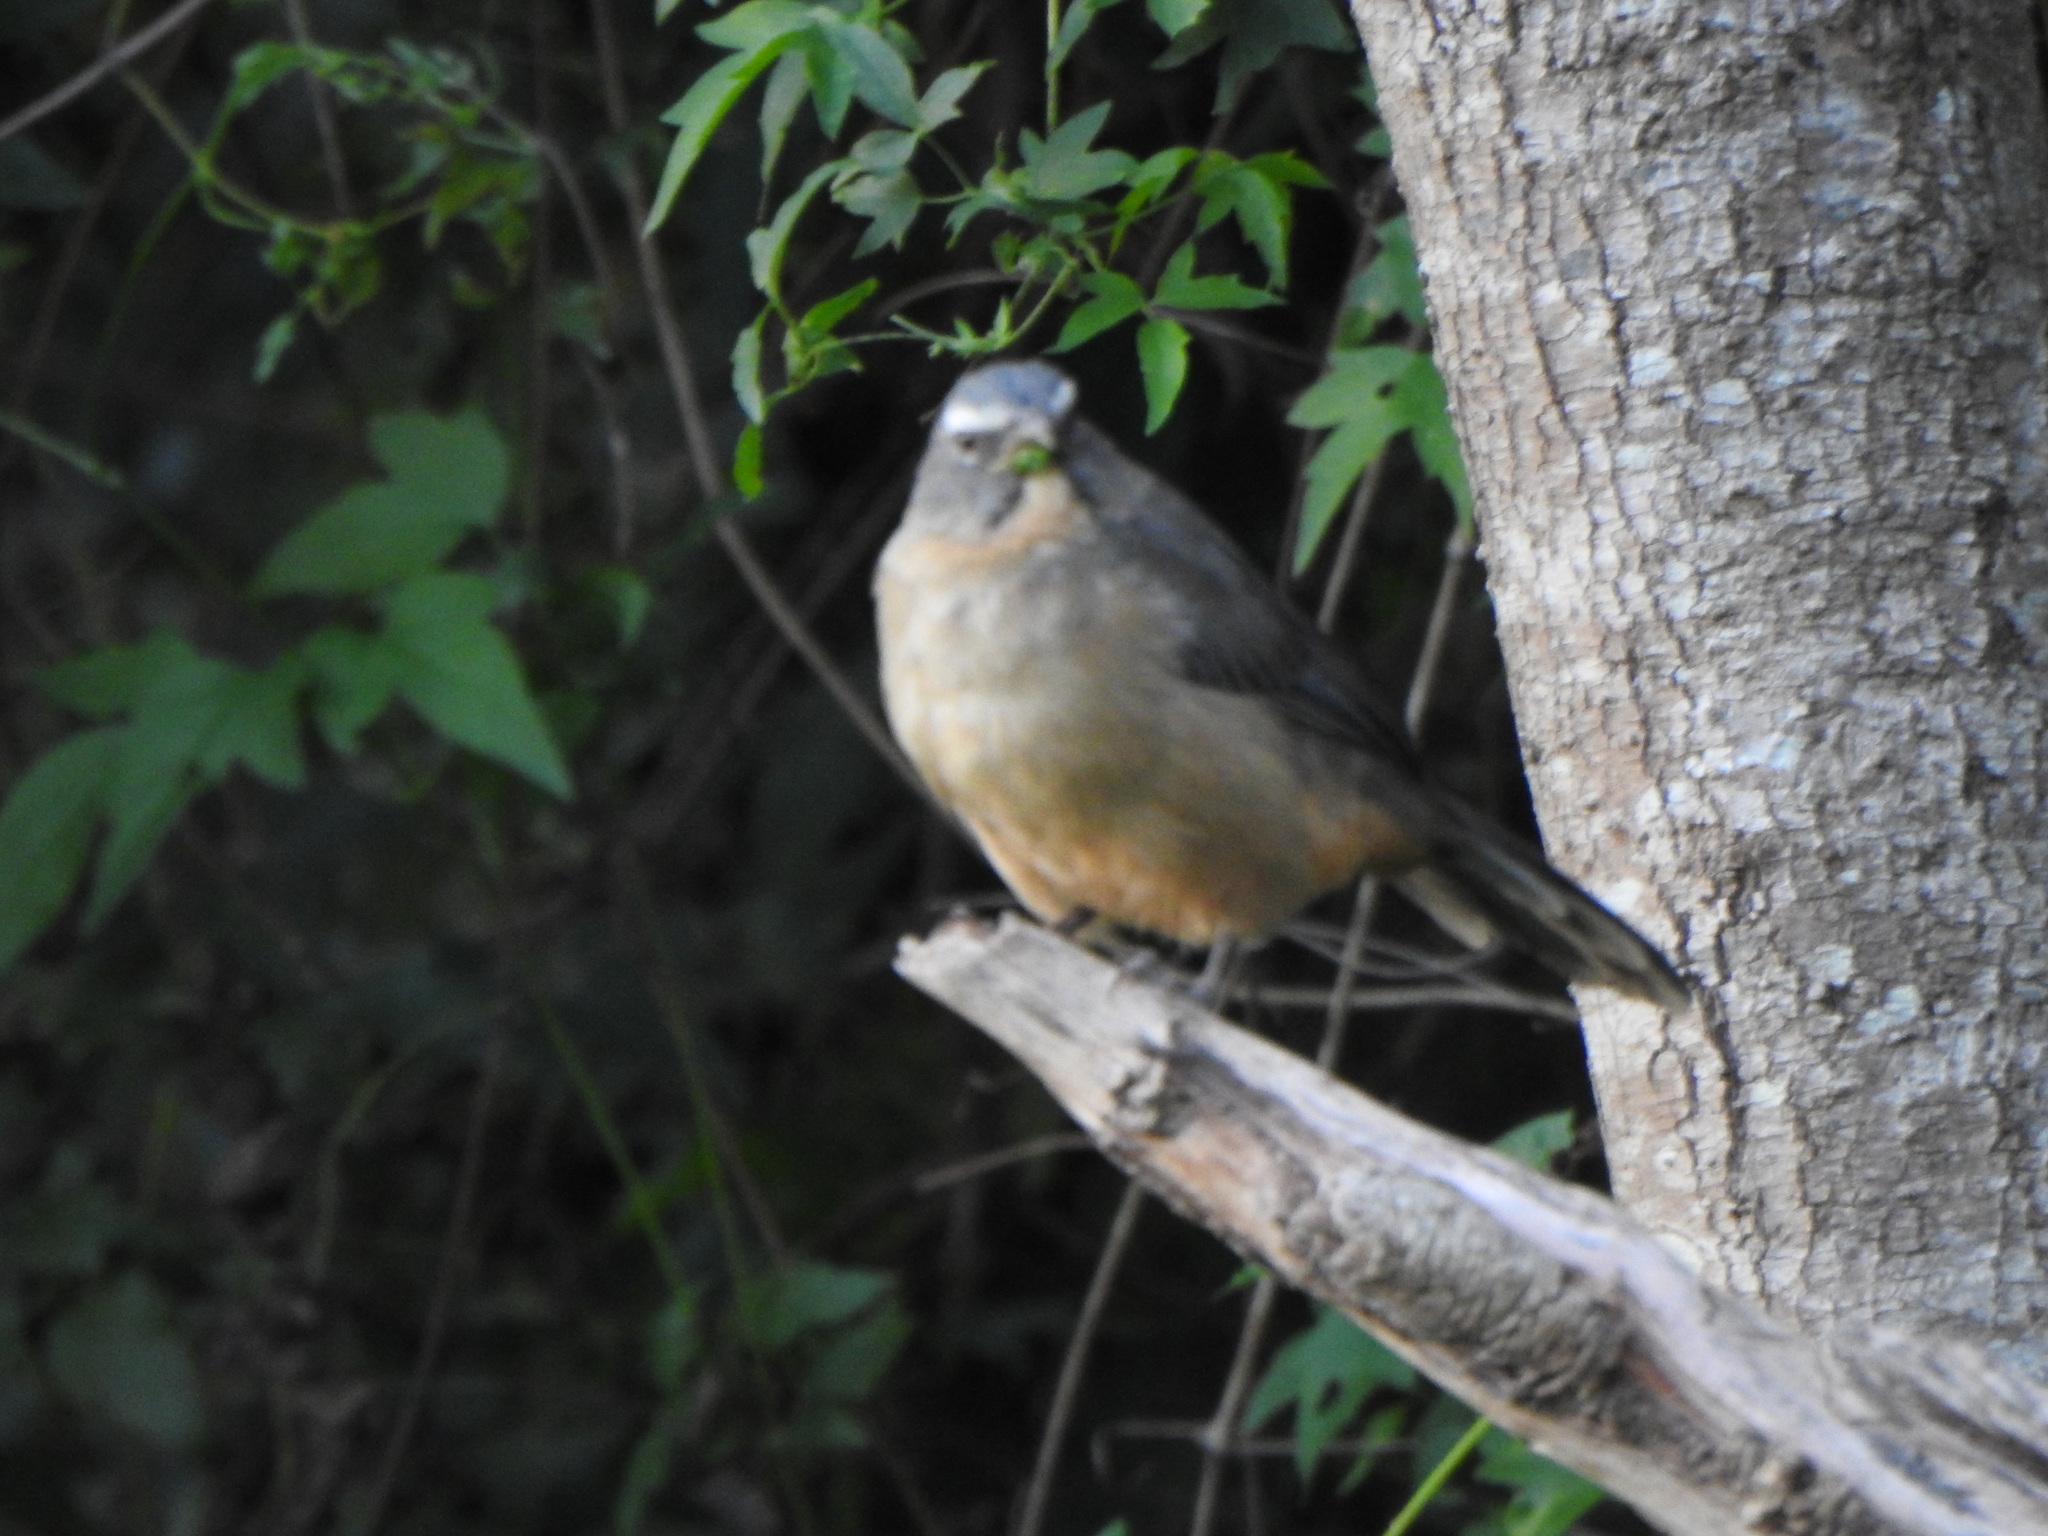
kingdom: Animalia
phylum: Chordata
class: Aves
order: Passeriformes
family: Thraupidae
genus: Saltator
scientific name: Saltator coerulescens
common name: Grayish saltator
